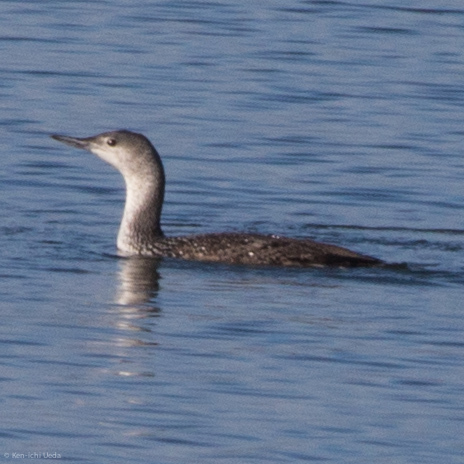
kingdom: Animalia
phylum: Chordata
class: Aves
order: Gaviiformes
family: Gaviidae
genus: Gavia
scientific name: Gavia stellata
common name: Red-throated loon
